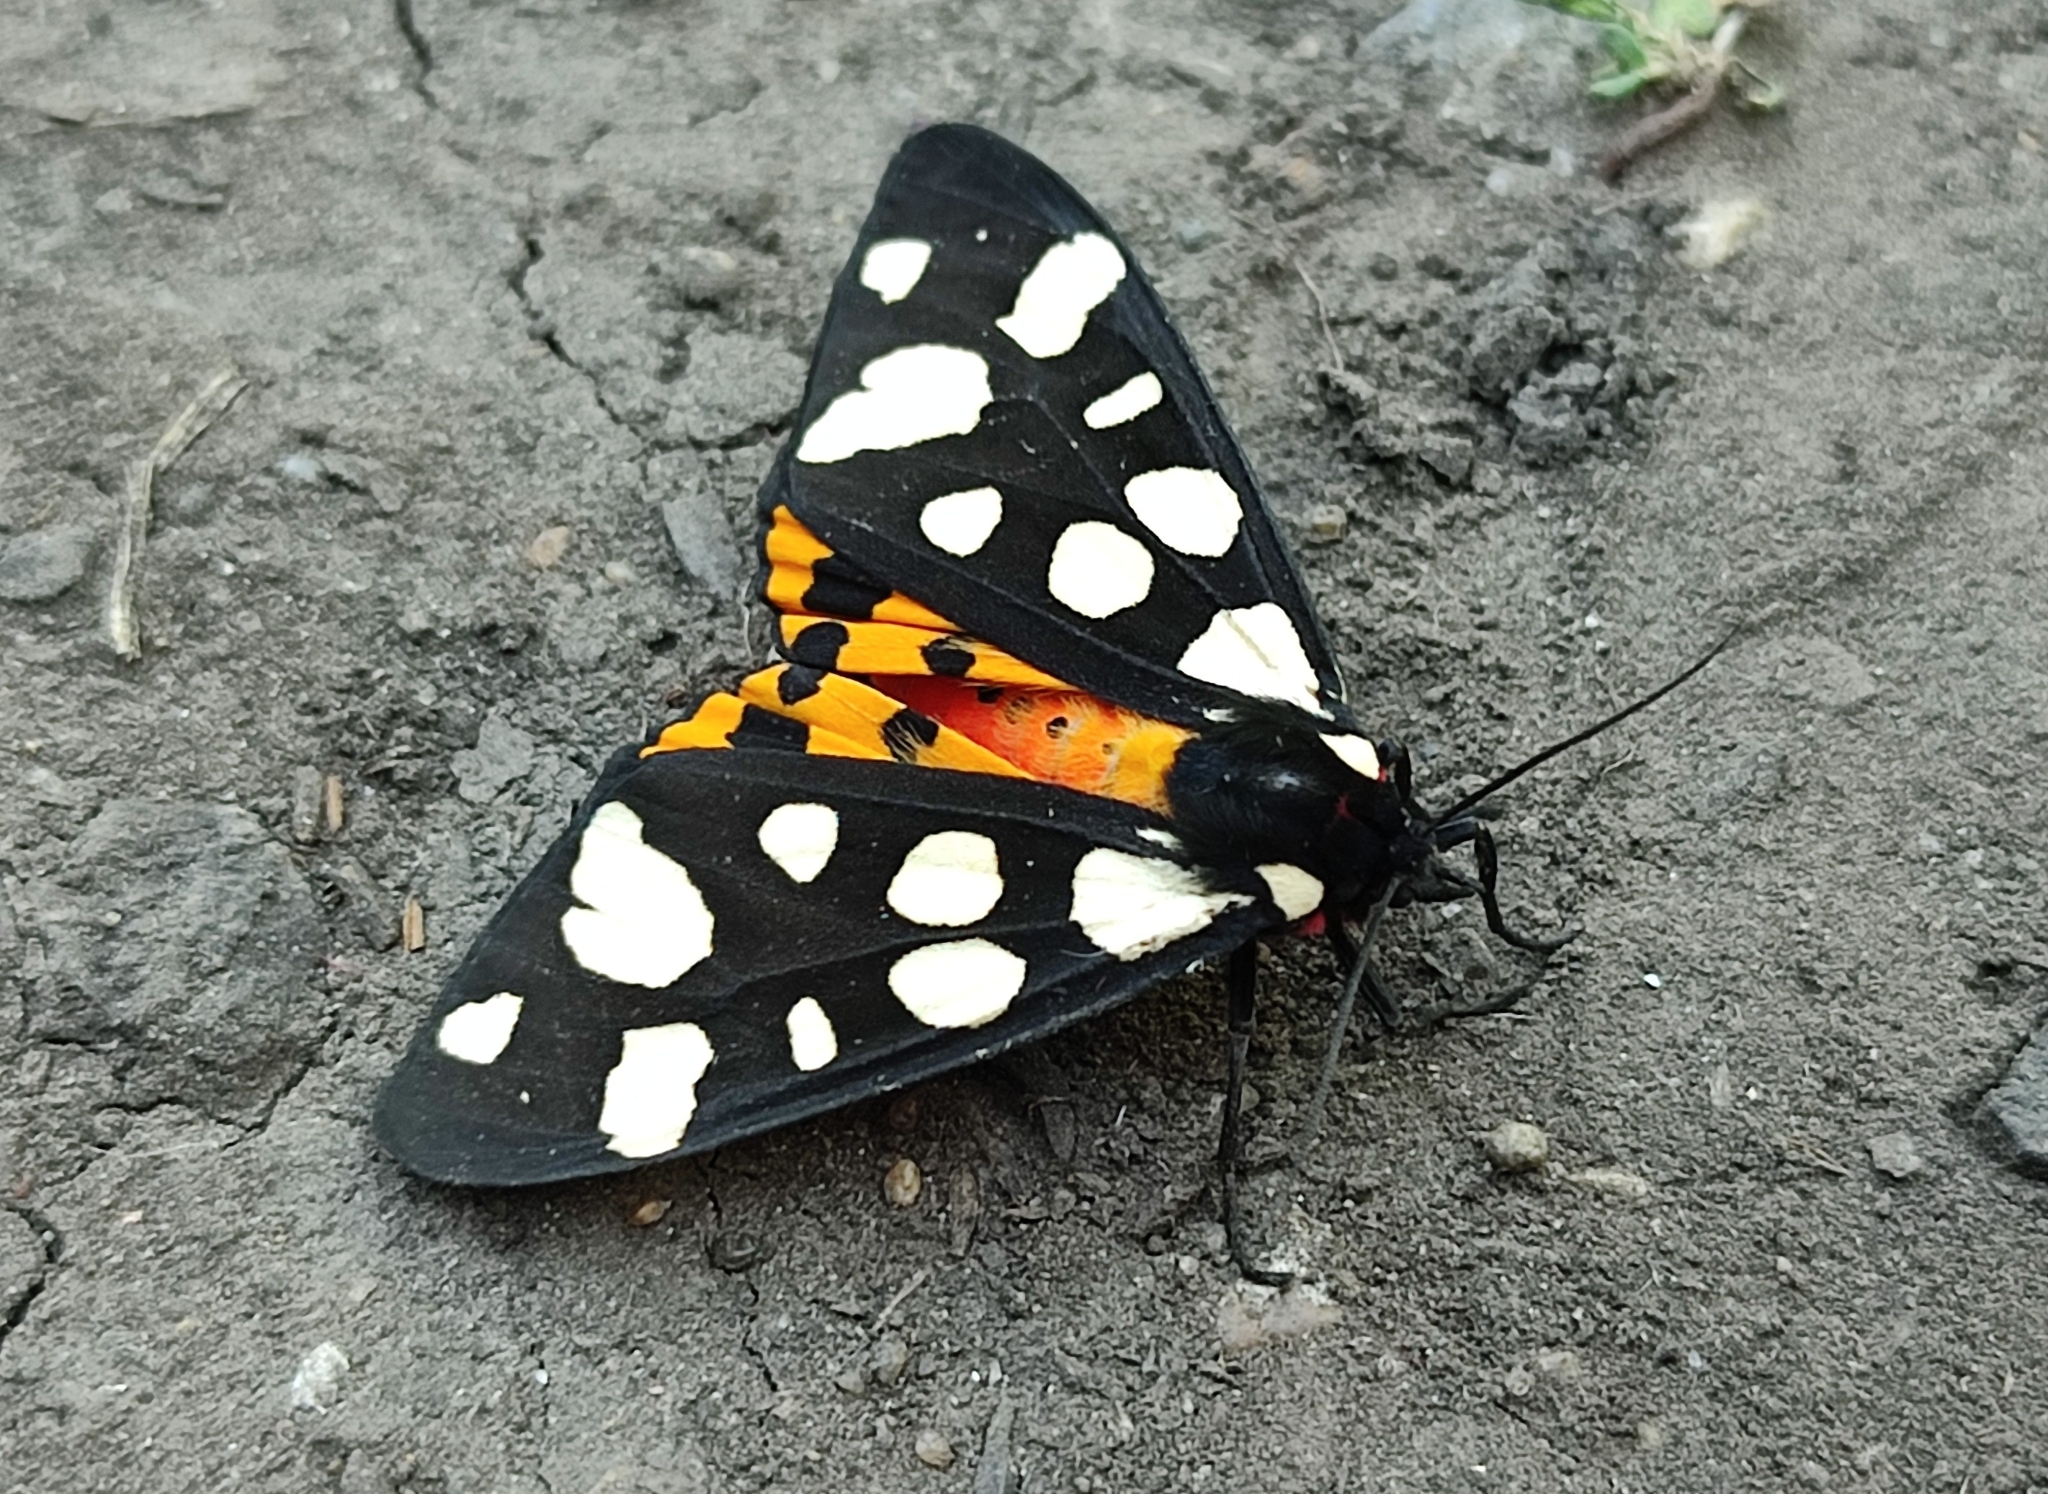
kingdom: Animalia
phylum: Arthropoda
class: Insecta
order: Lepidoptera
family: Erebidae
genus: Epicallia
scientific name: Epicallia villica
